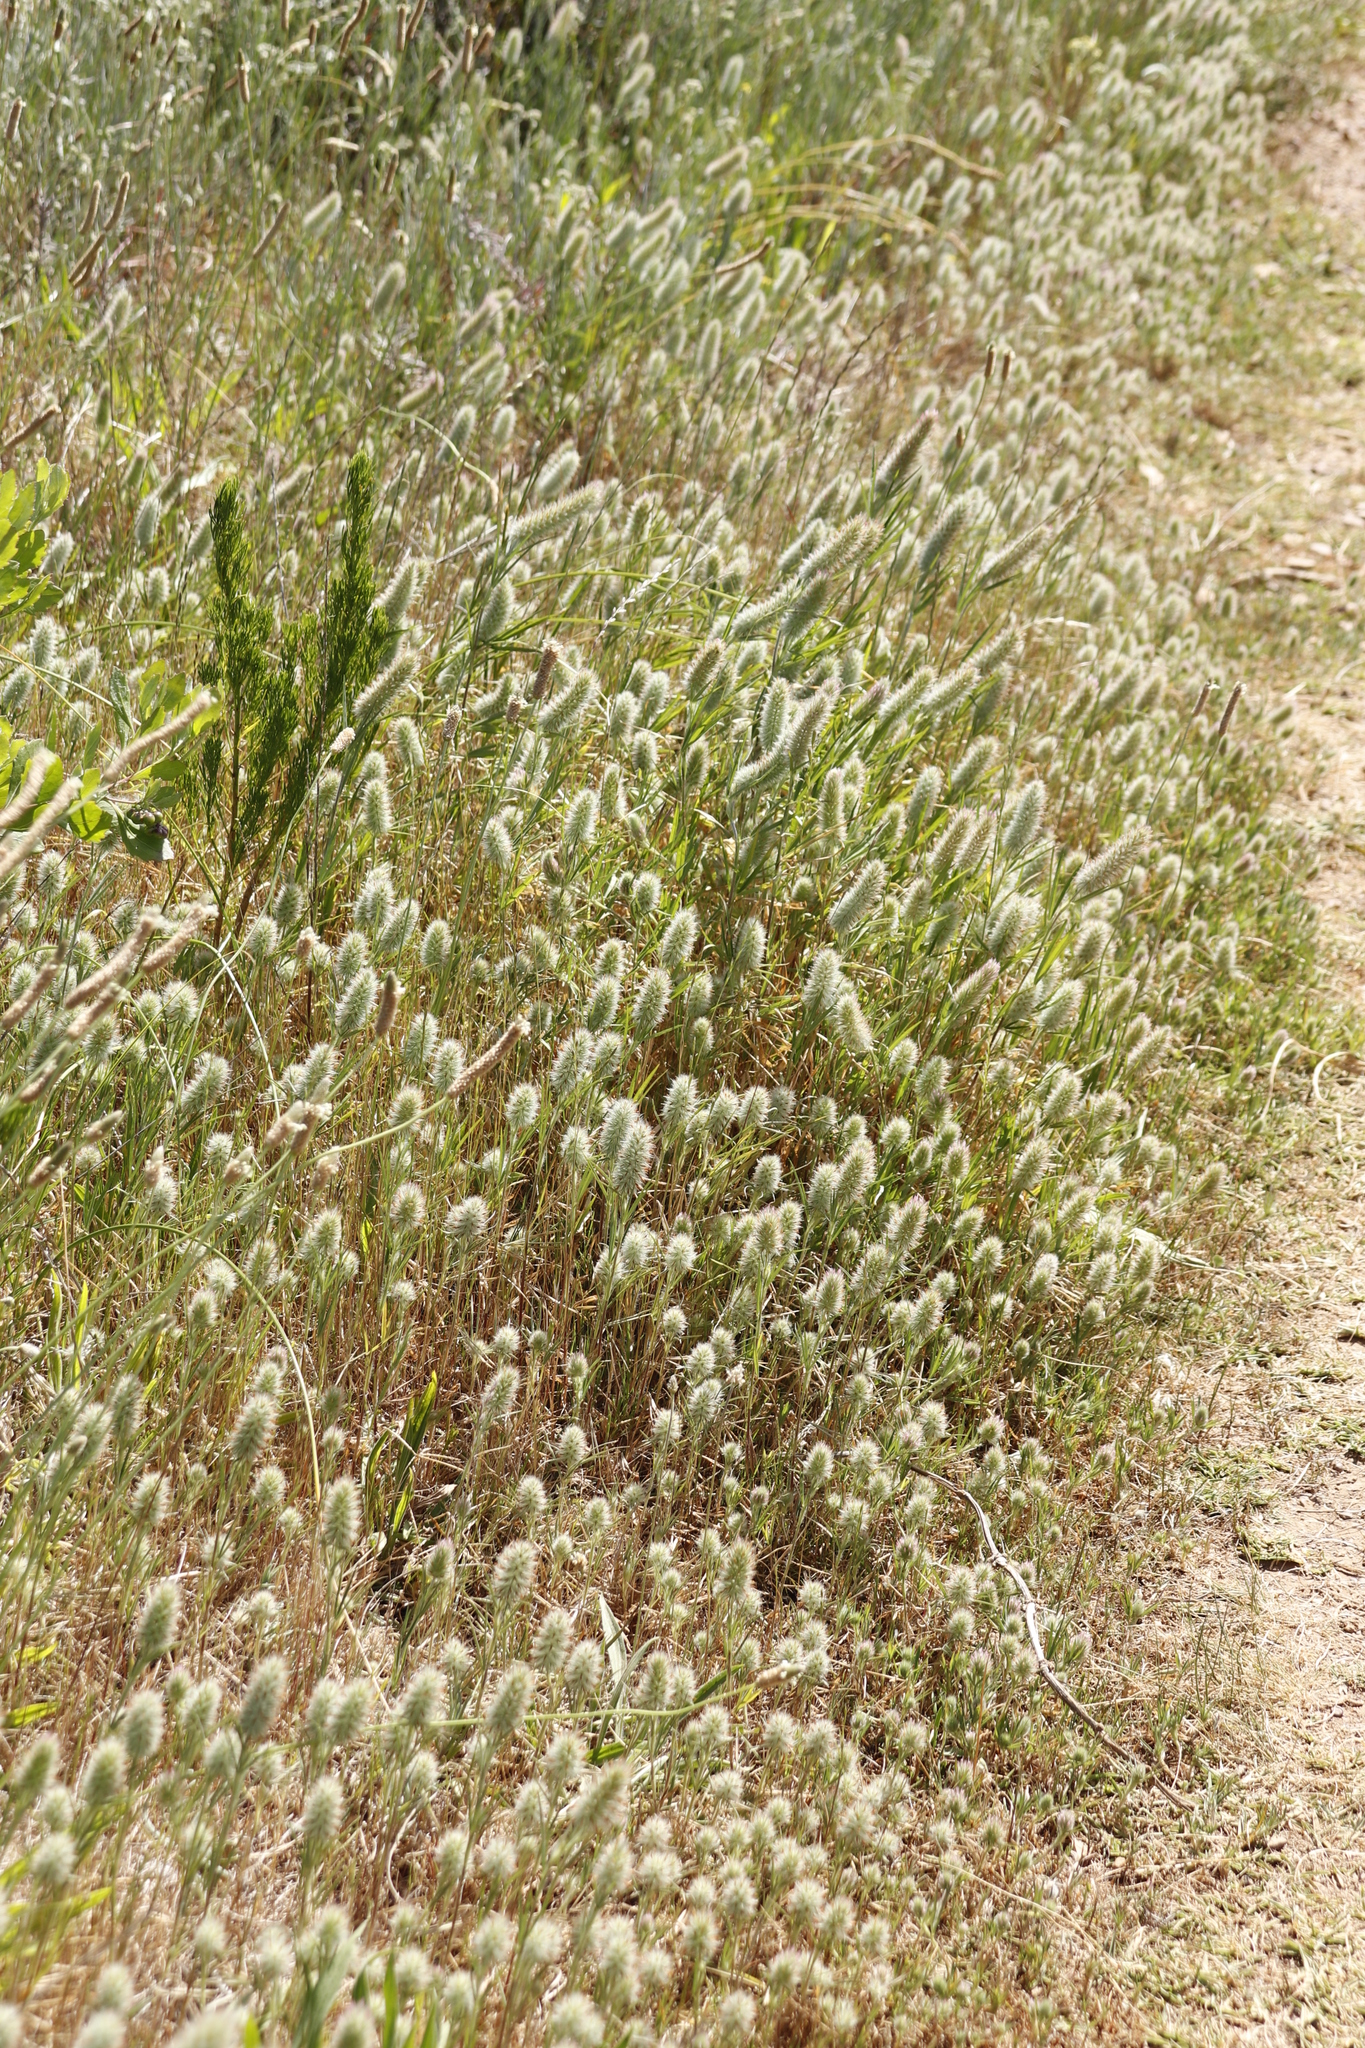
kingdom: Plantae
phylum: Tracheophyta
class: Magnoliopsida
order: Fabales
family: Fabaceae
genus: Trifolium
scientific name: Trifolium angustifolium
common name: Narrow clover
